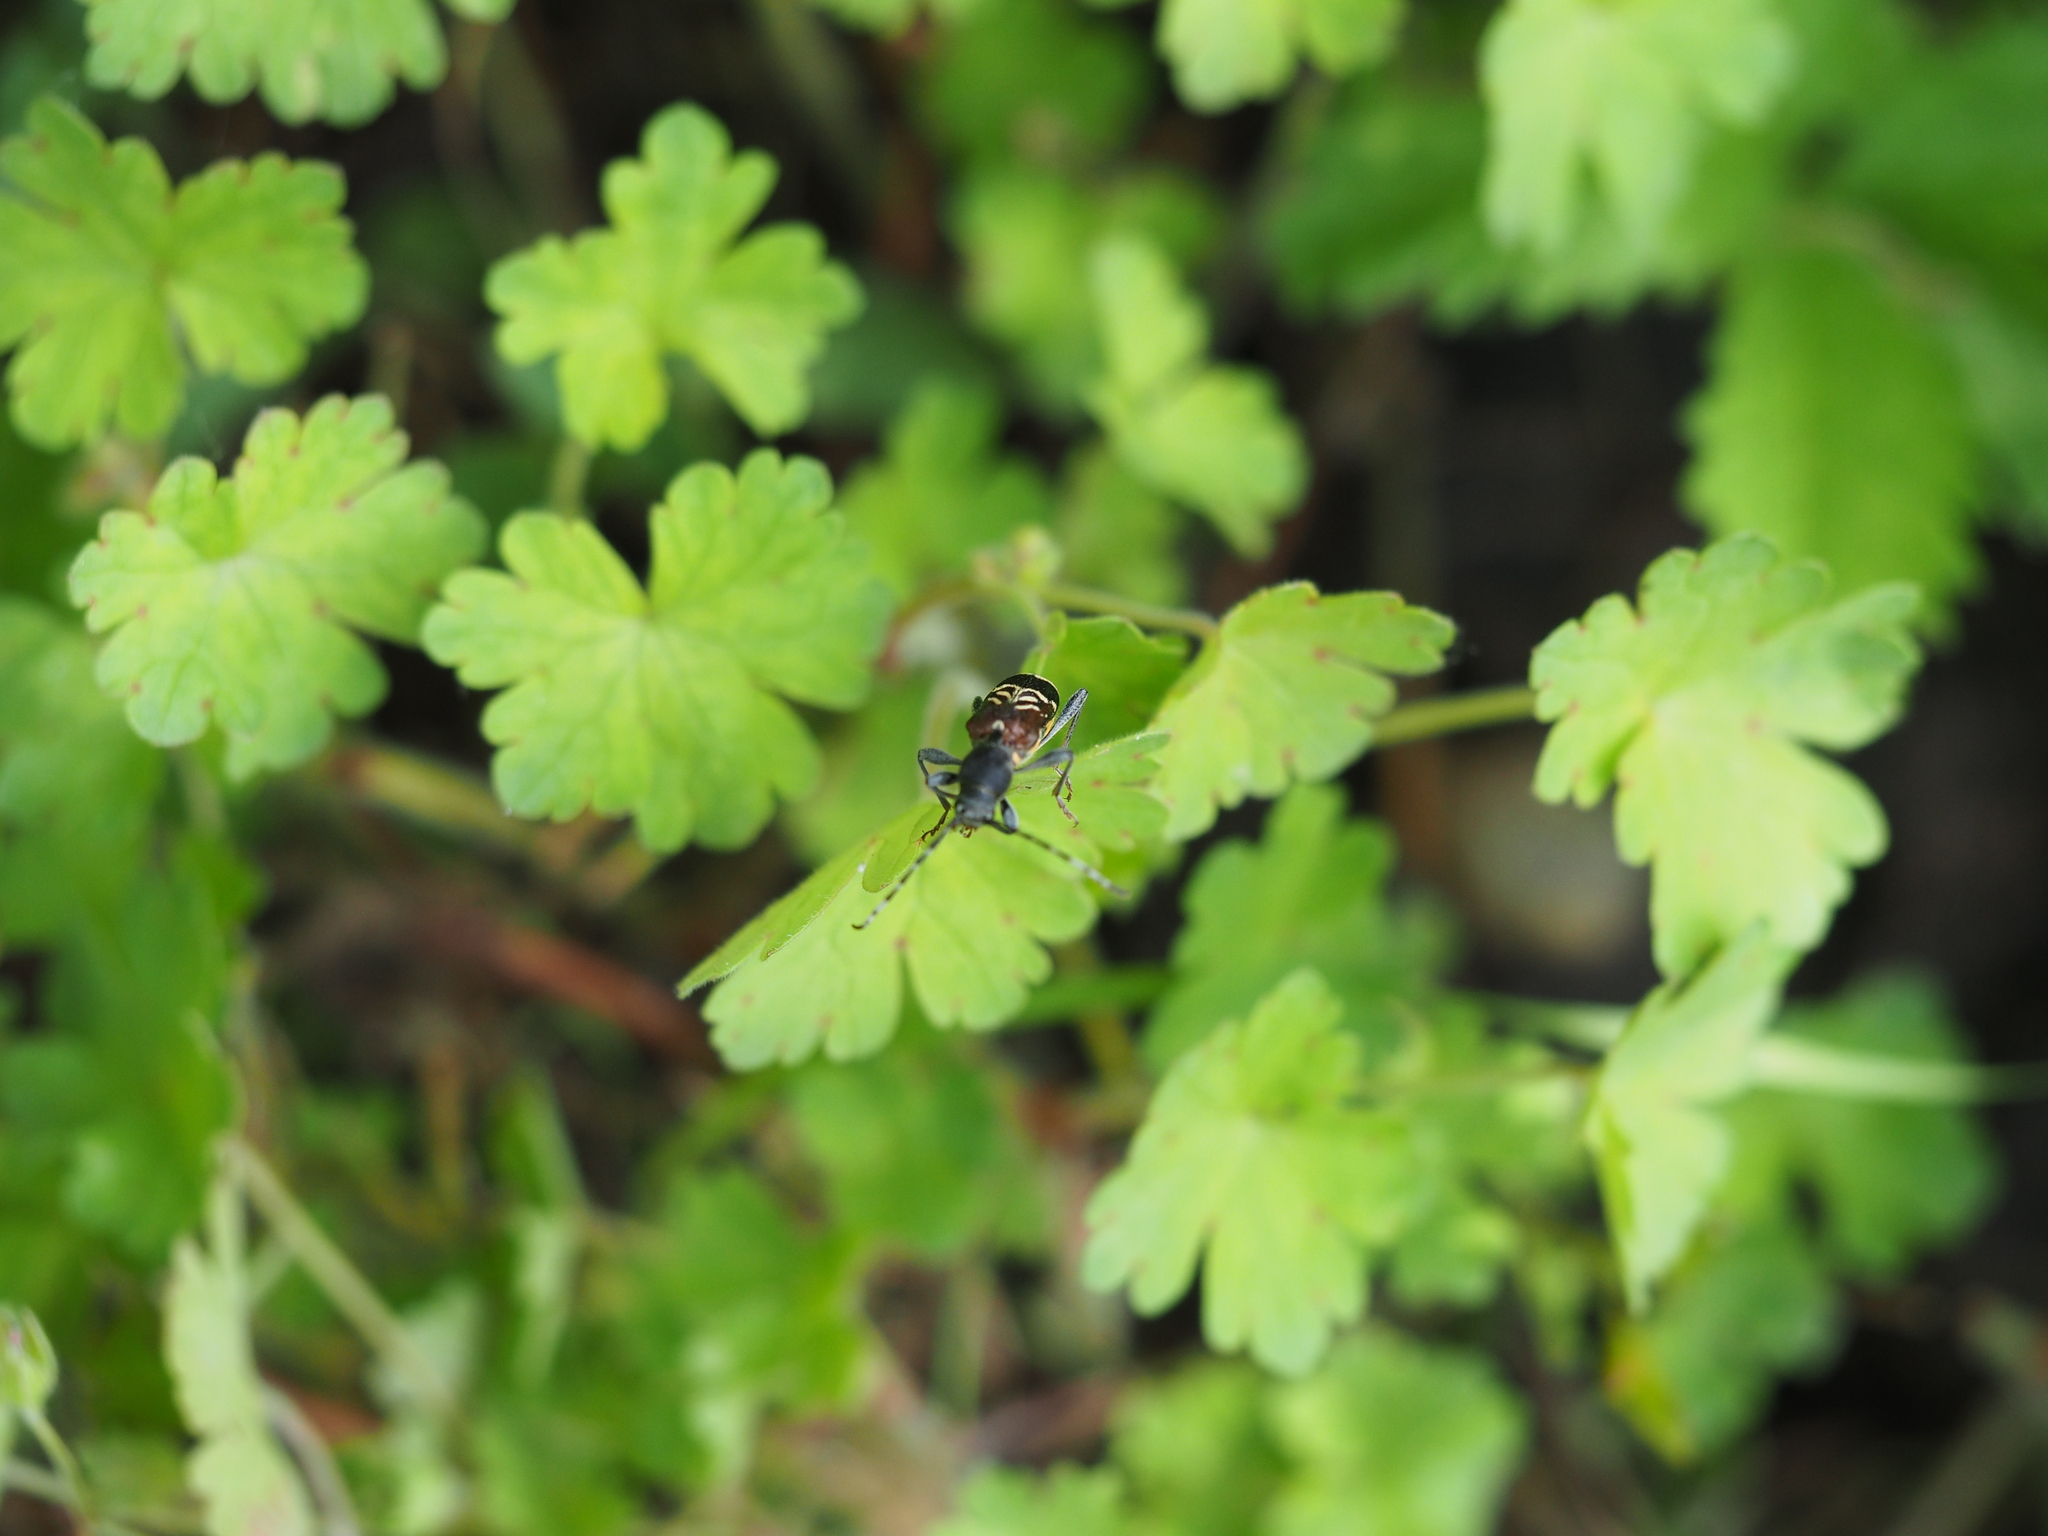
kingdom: Animalia
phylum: Arthropoda
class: Insecta
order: Coleoptera
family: Cerambycidae
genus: Anaglyptus
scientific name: Anaglyptus mysticus
